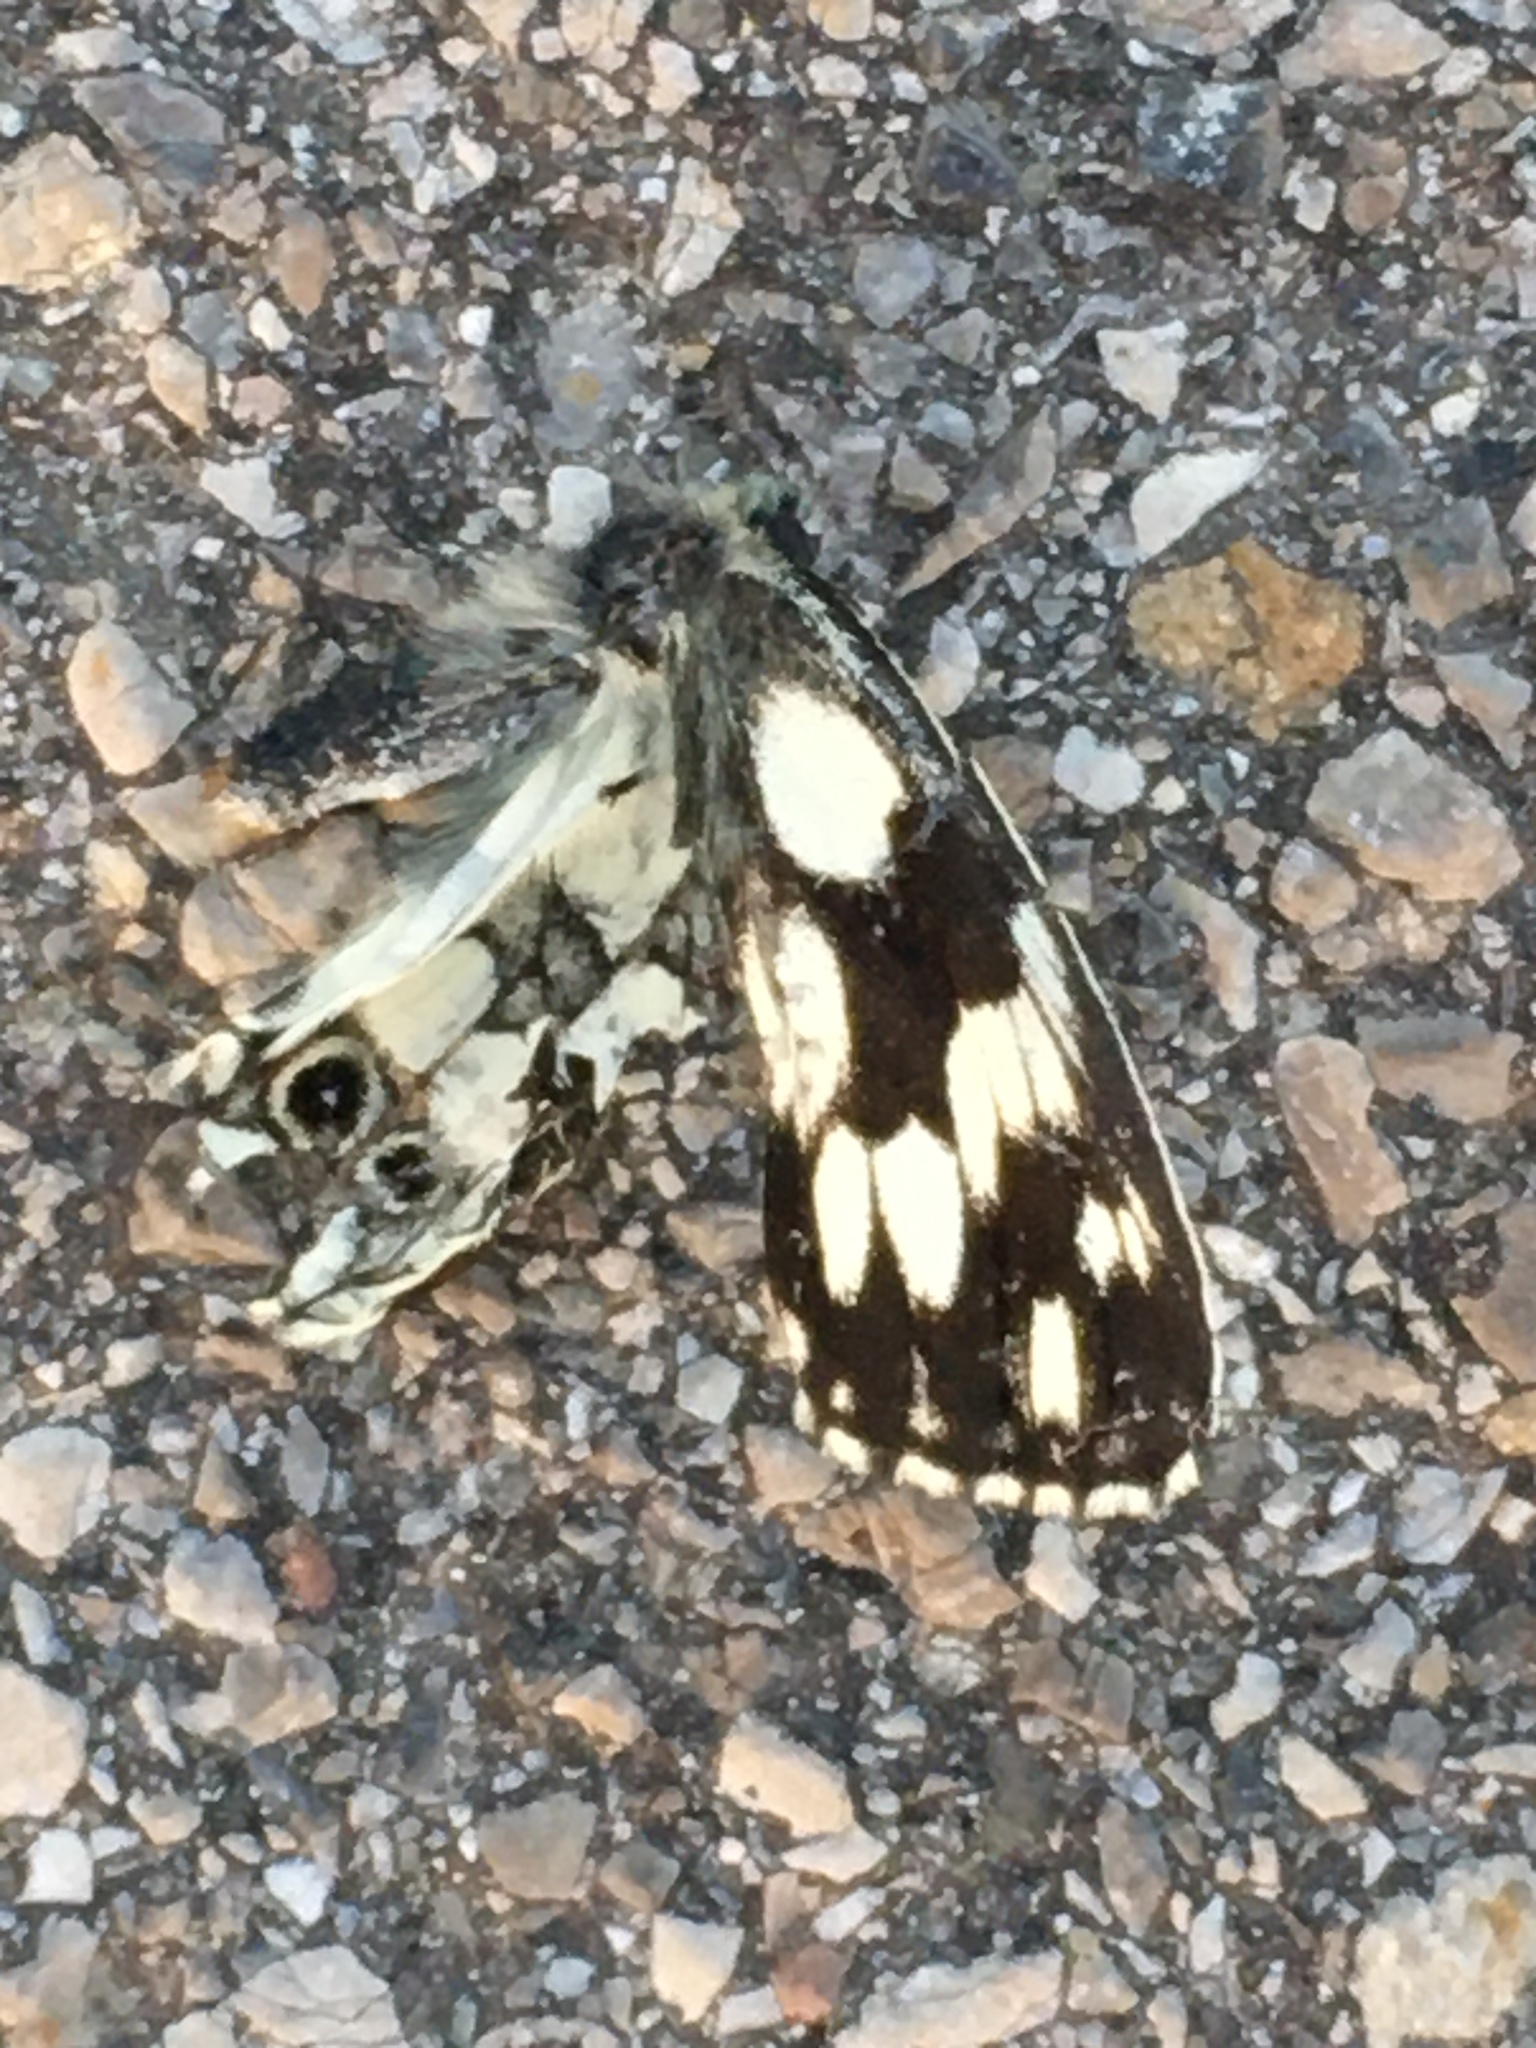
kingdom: Animalia
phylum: Arthropoda
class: Insecta
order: Lepidoptera
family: Nymphalidae
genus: Melanargia
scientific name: Melanargia galathea
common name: Marbled white
